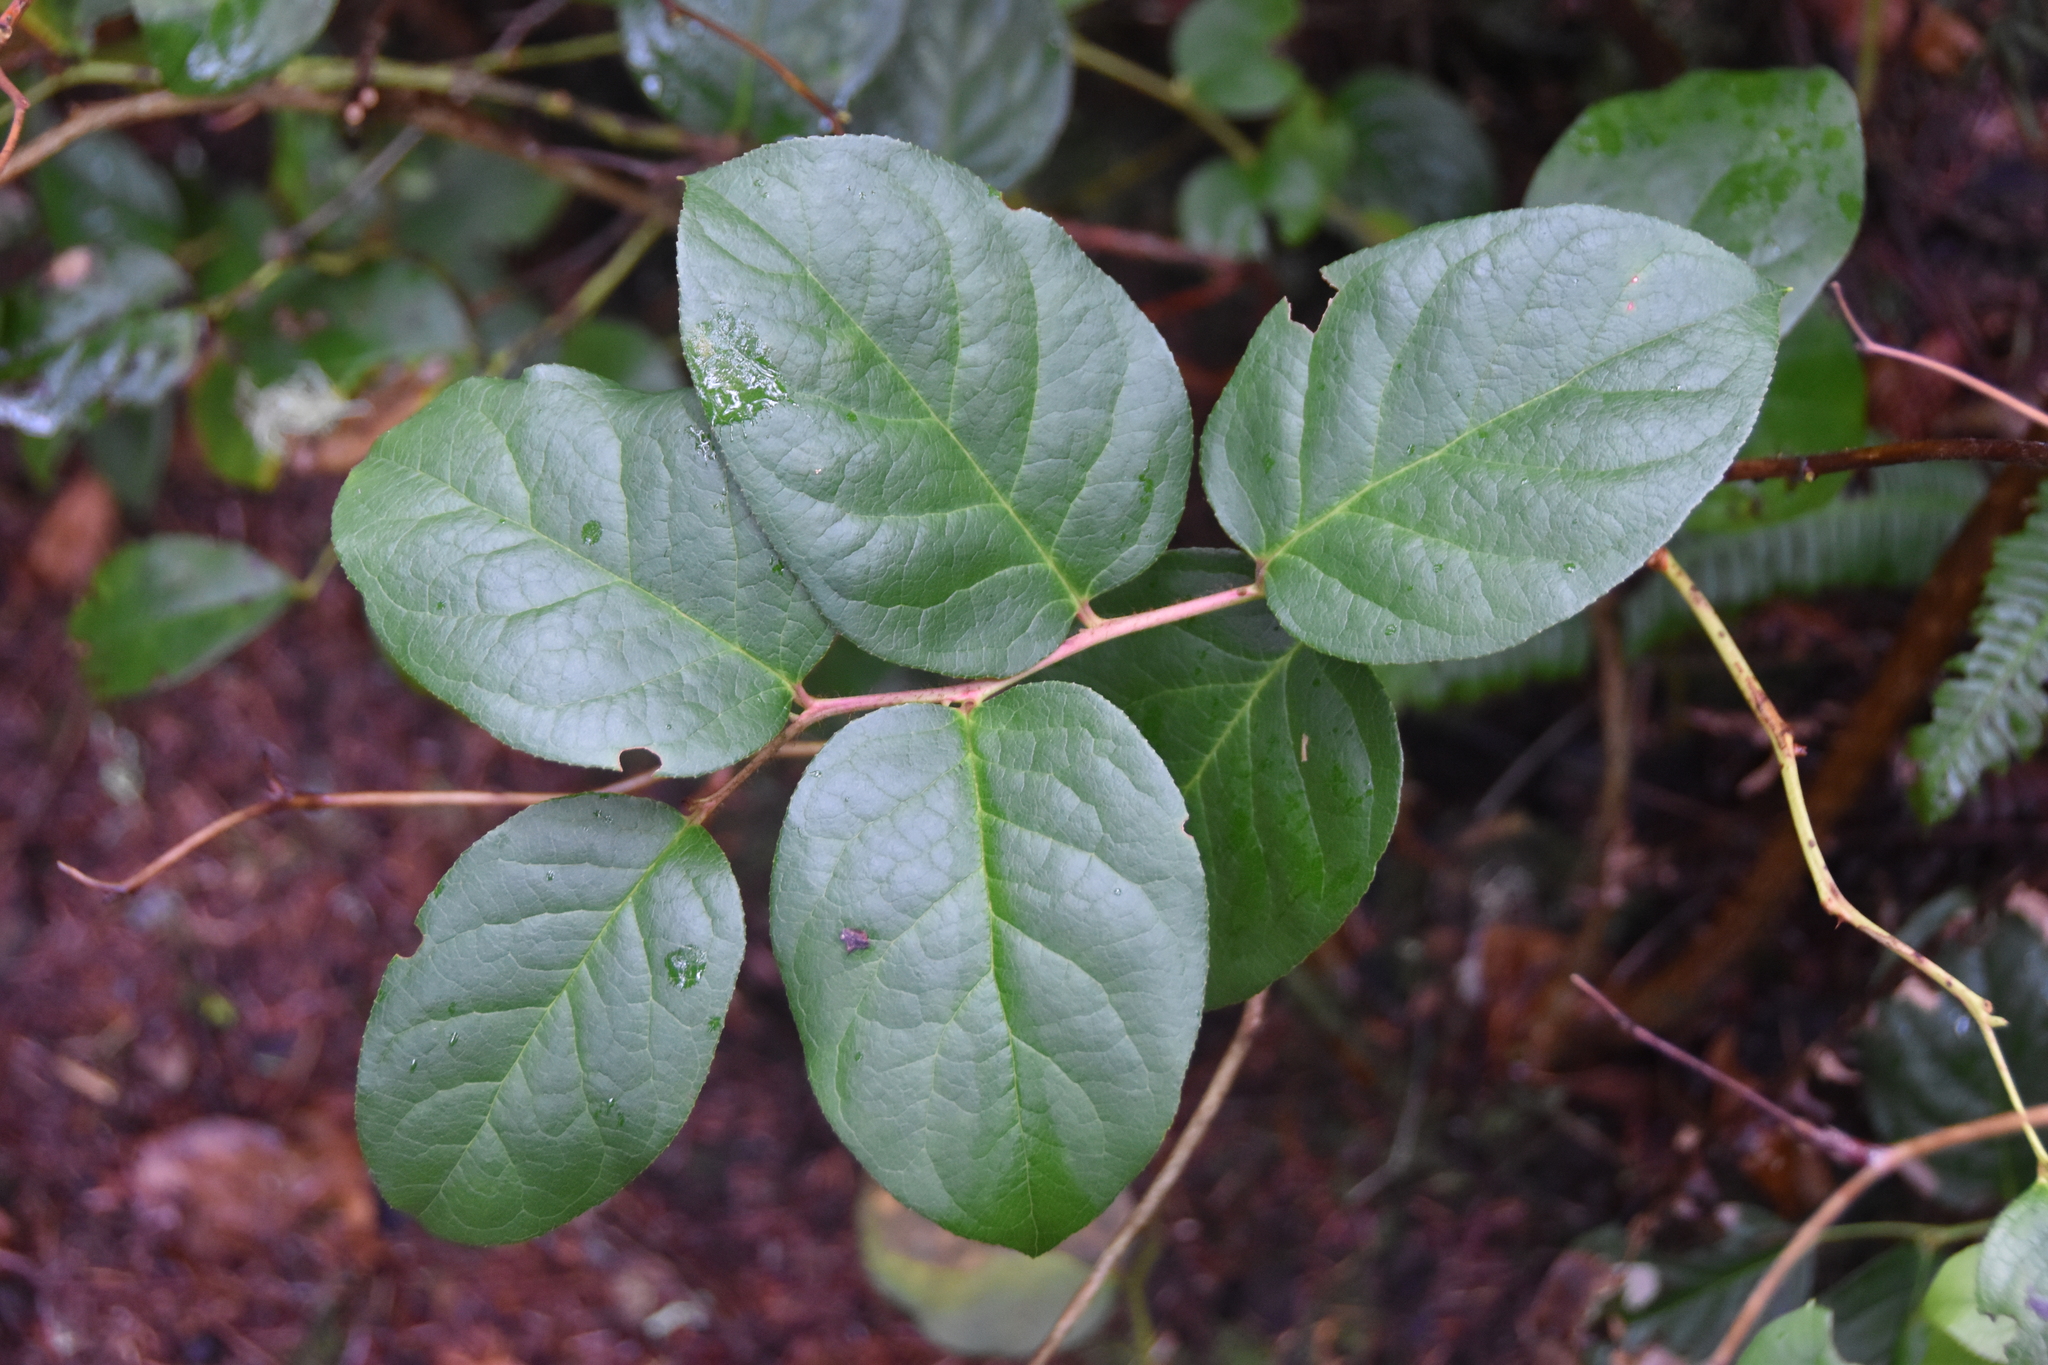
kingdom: Plantae
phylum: Tracheophyta
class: Magnoliopsida
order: Ericales
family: Ericaceae
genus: Gaultheria
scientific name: Gaultheria shallon
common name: Shallon
